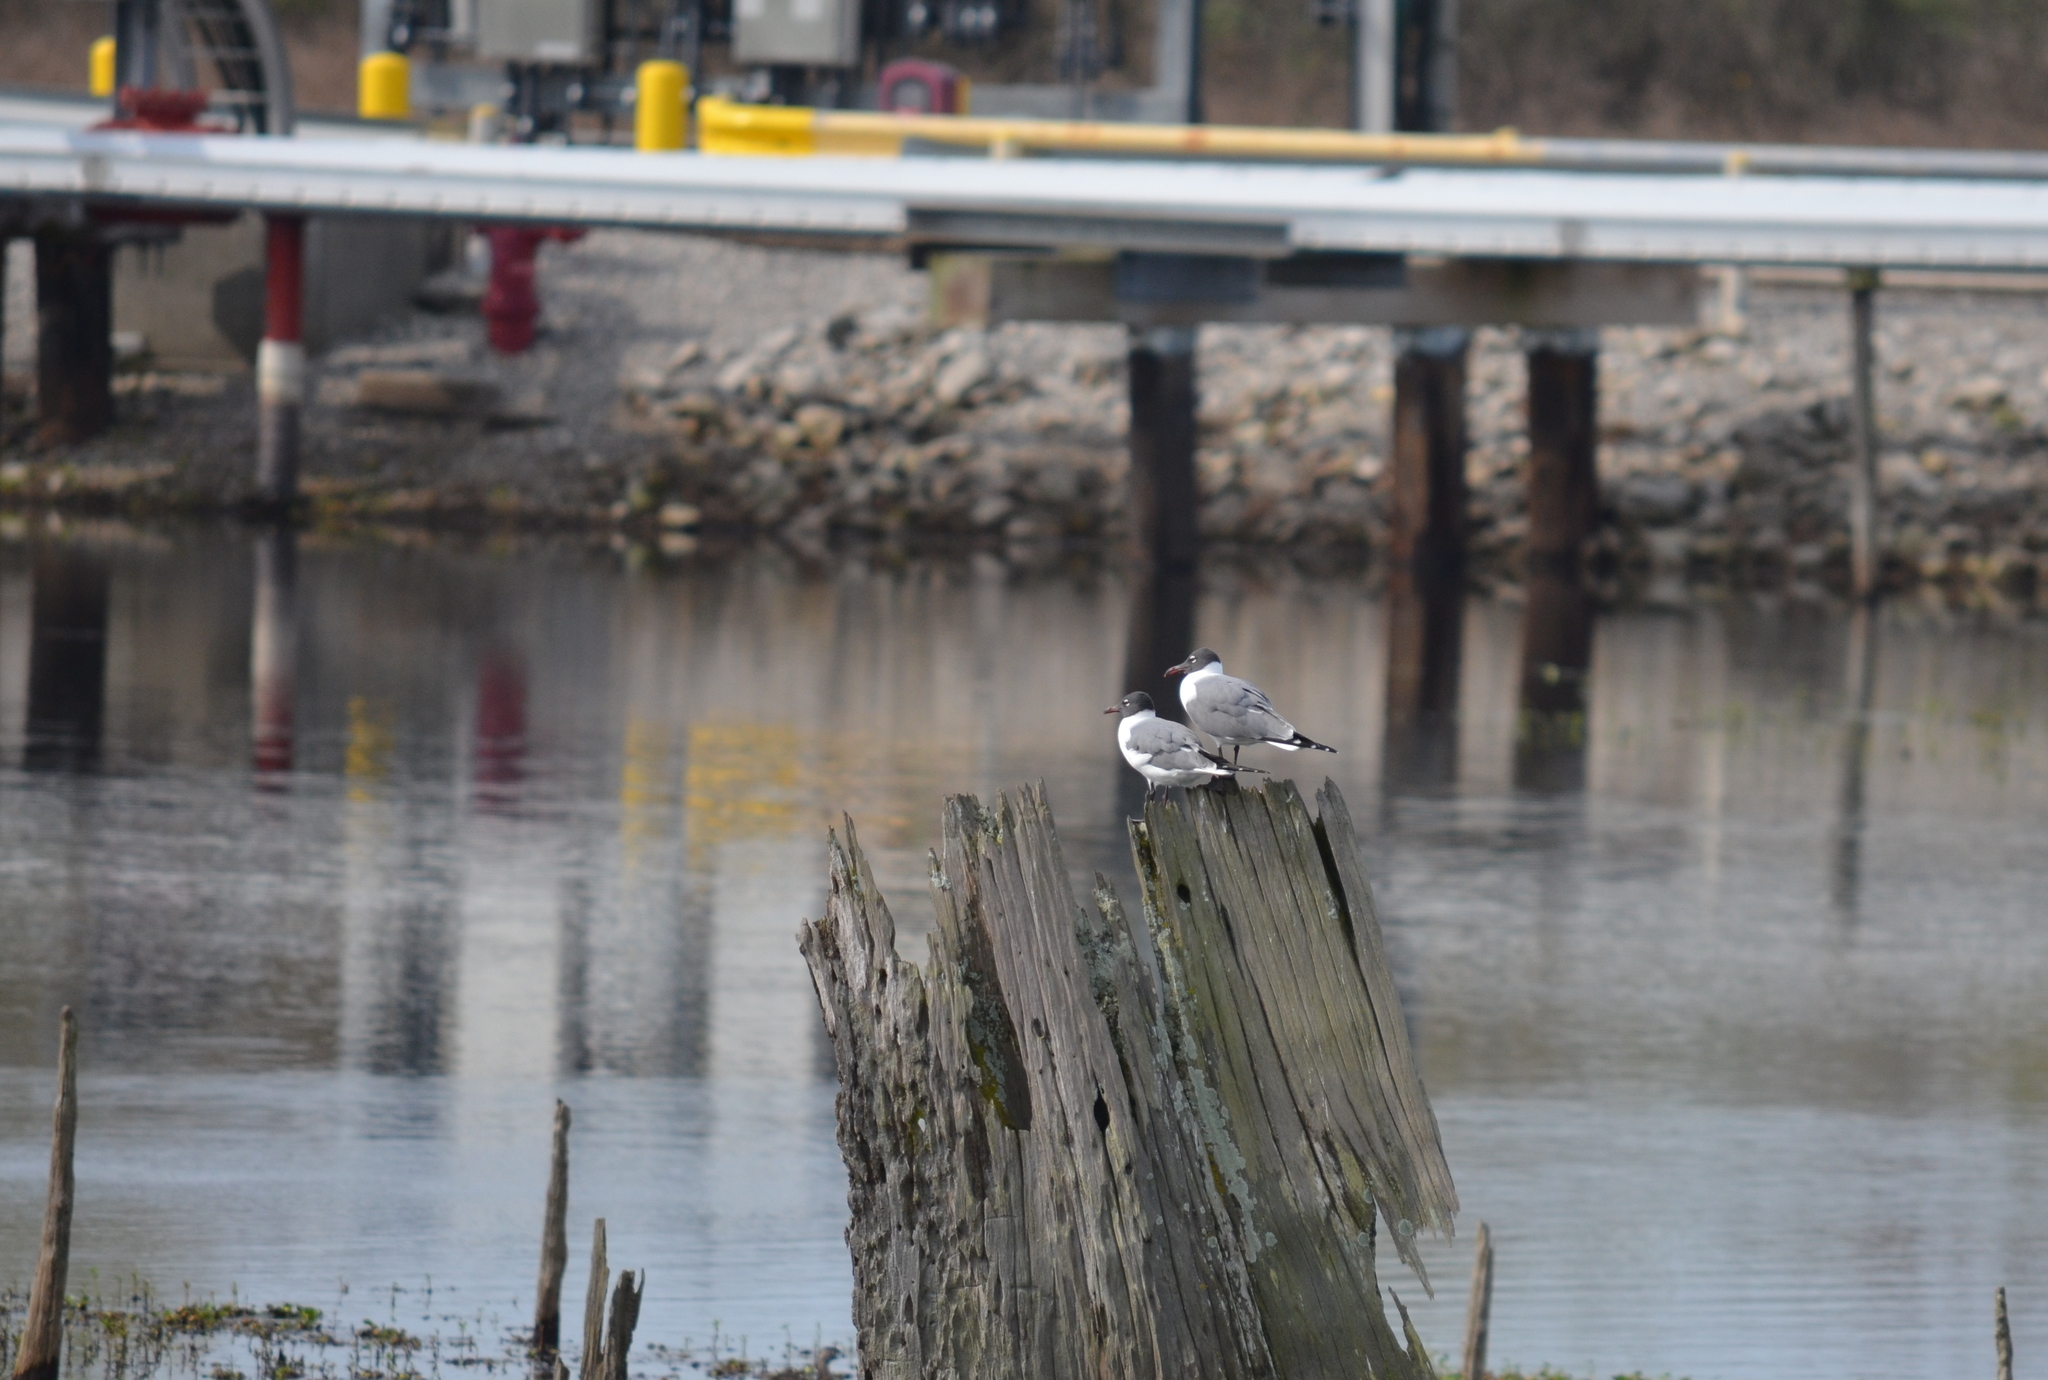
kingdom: Animalia
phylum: Chordata
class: Aves
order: Charadriiformes
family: Laridae
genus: Leucophaeus
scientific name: Leucophaeus atricilla
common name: Laughing gull
